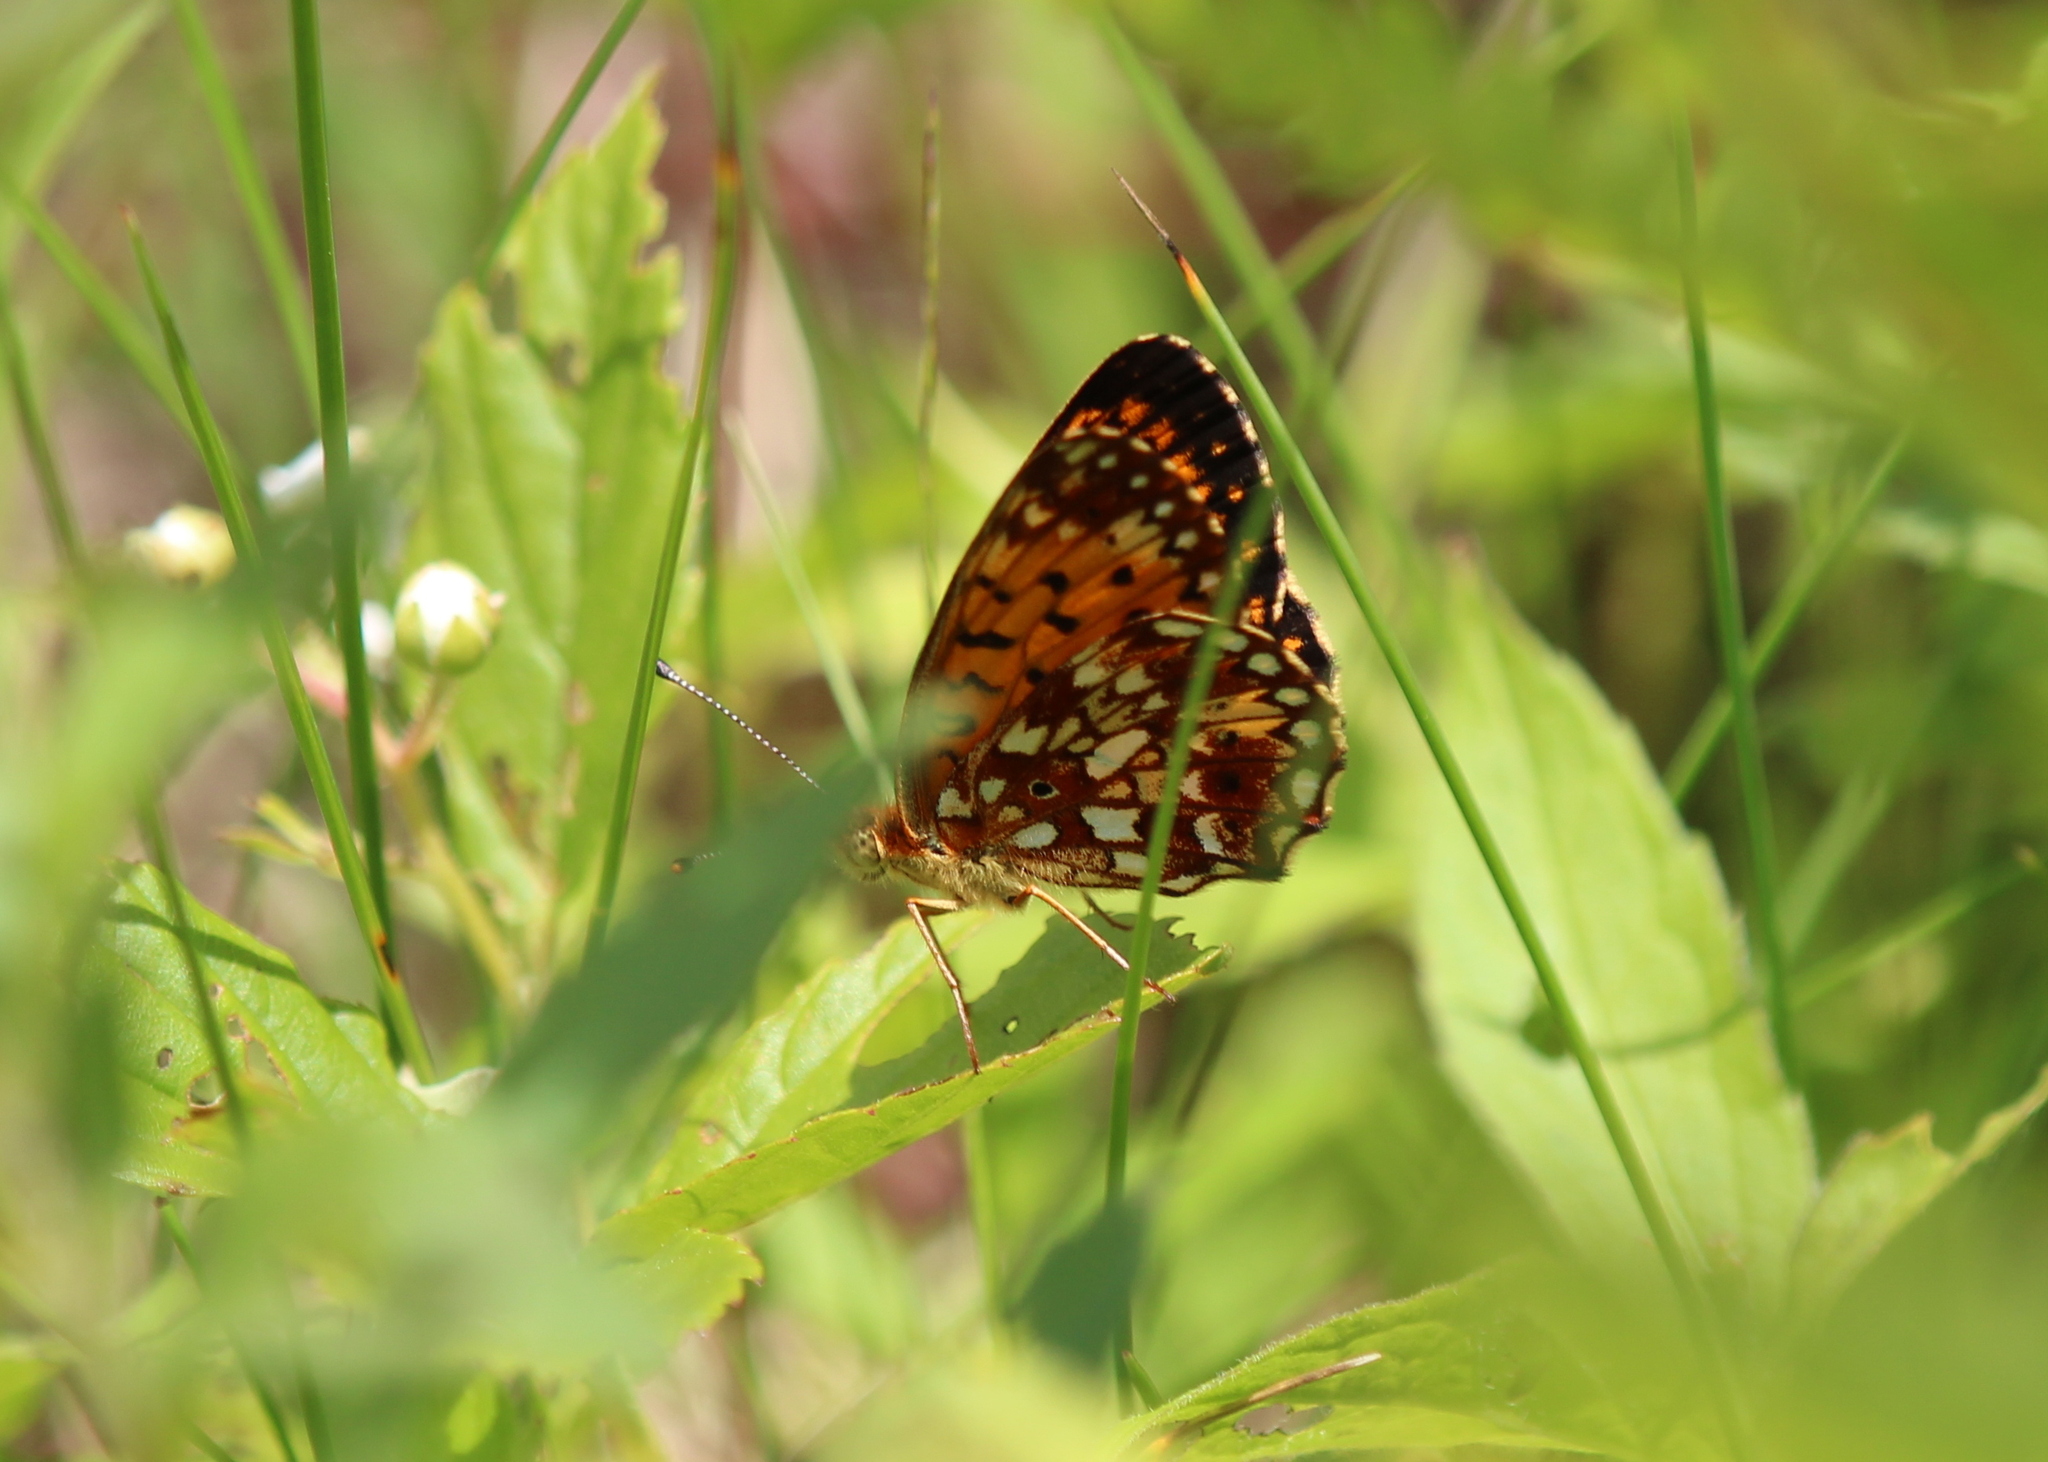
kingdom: Animalia
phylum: Arthropoda
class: Insecta
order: Lepidoptera
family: Nymphalidae
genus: Boloria
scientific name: Boloria
